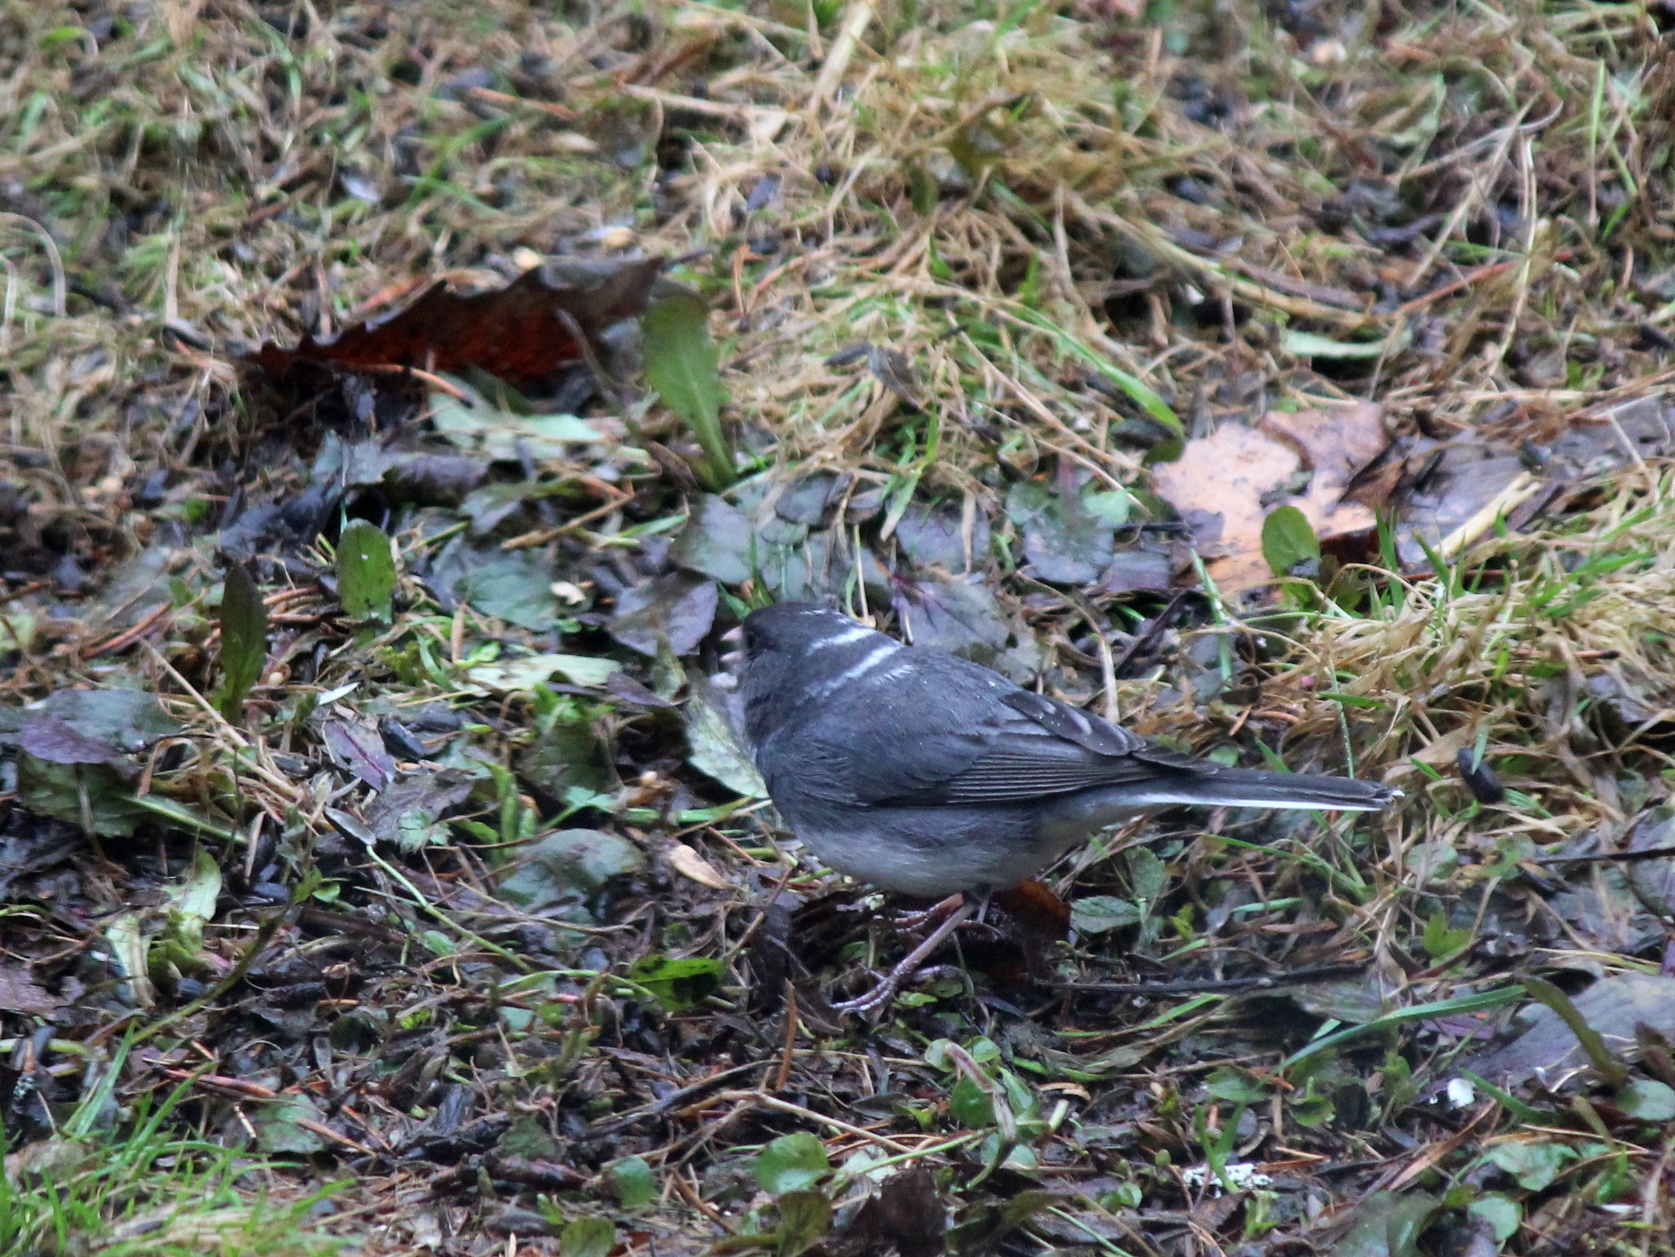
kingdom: Animalia
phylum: Chordata
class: Aves
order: Passeriformes
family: Passerellidae
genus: Junco
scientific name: Junco hyemalis
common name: Dark-eyed junco
